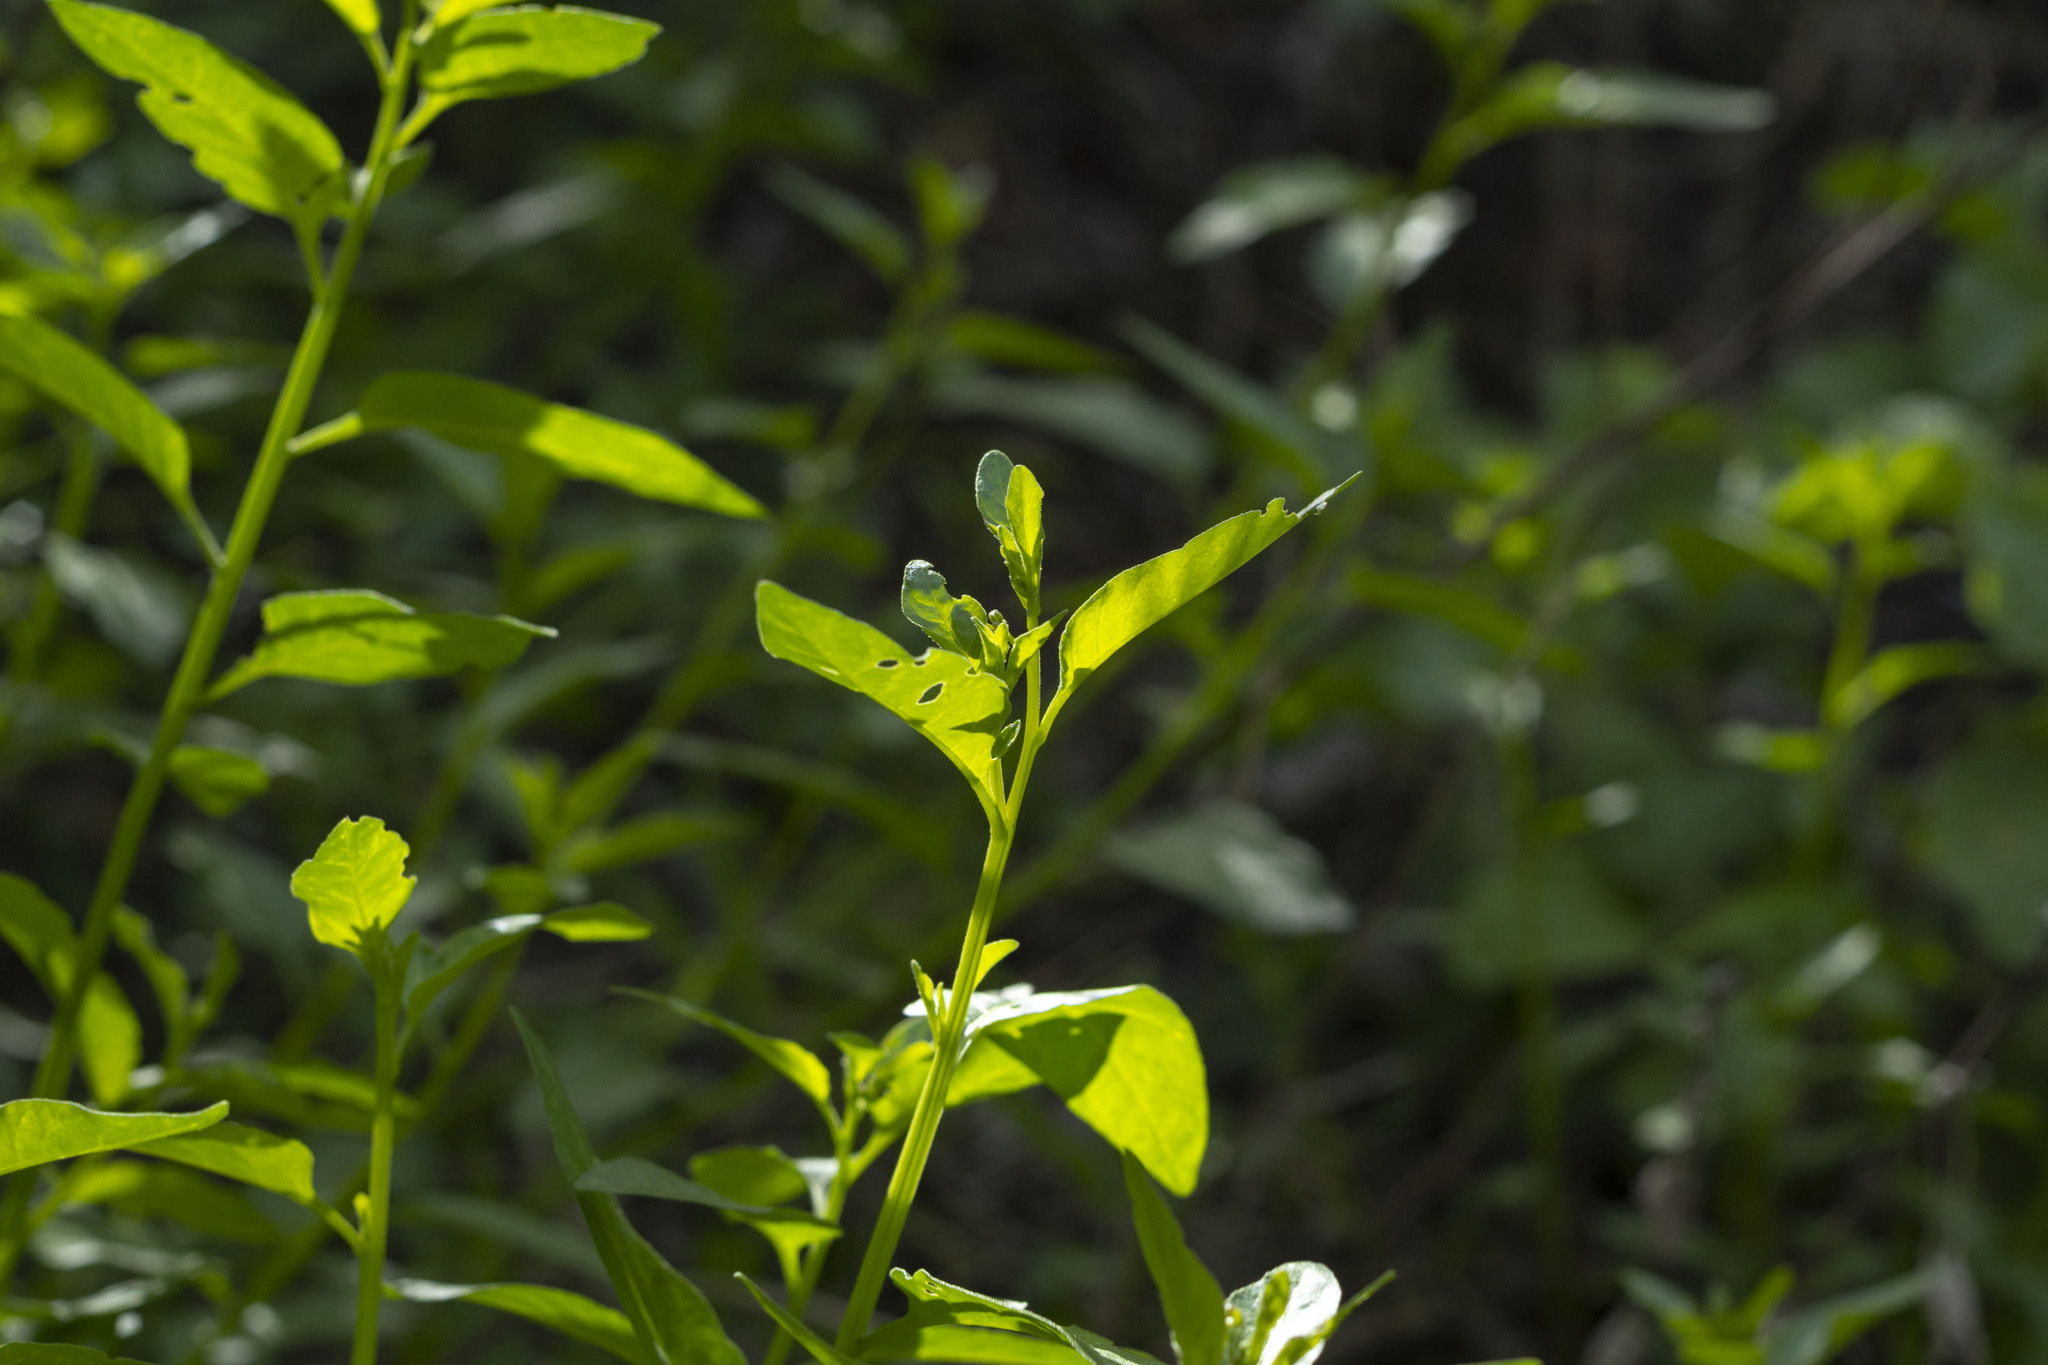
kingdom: Plantae
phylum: Tracheophyta
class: Magnoliopsida
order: Solanales
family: Solanaceae
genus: Solanum
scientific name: Solanum umbelliferum
